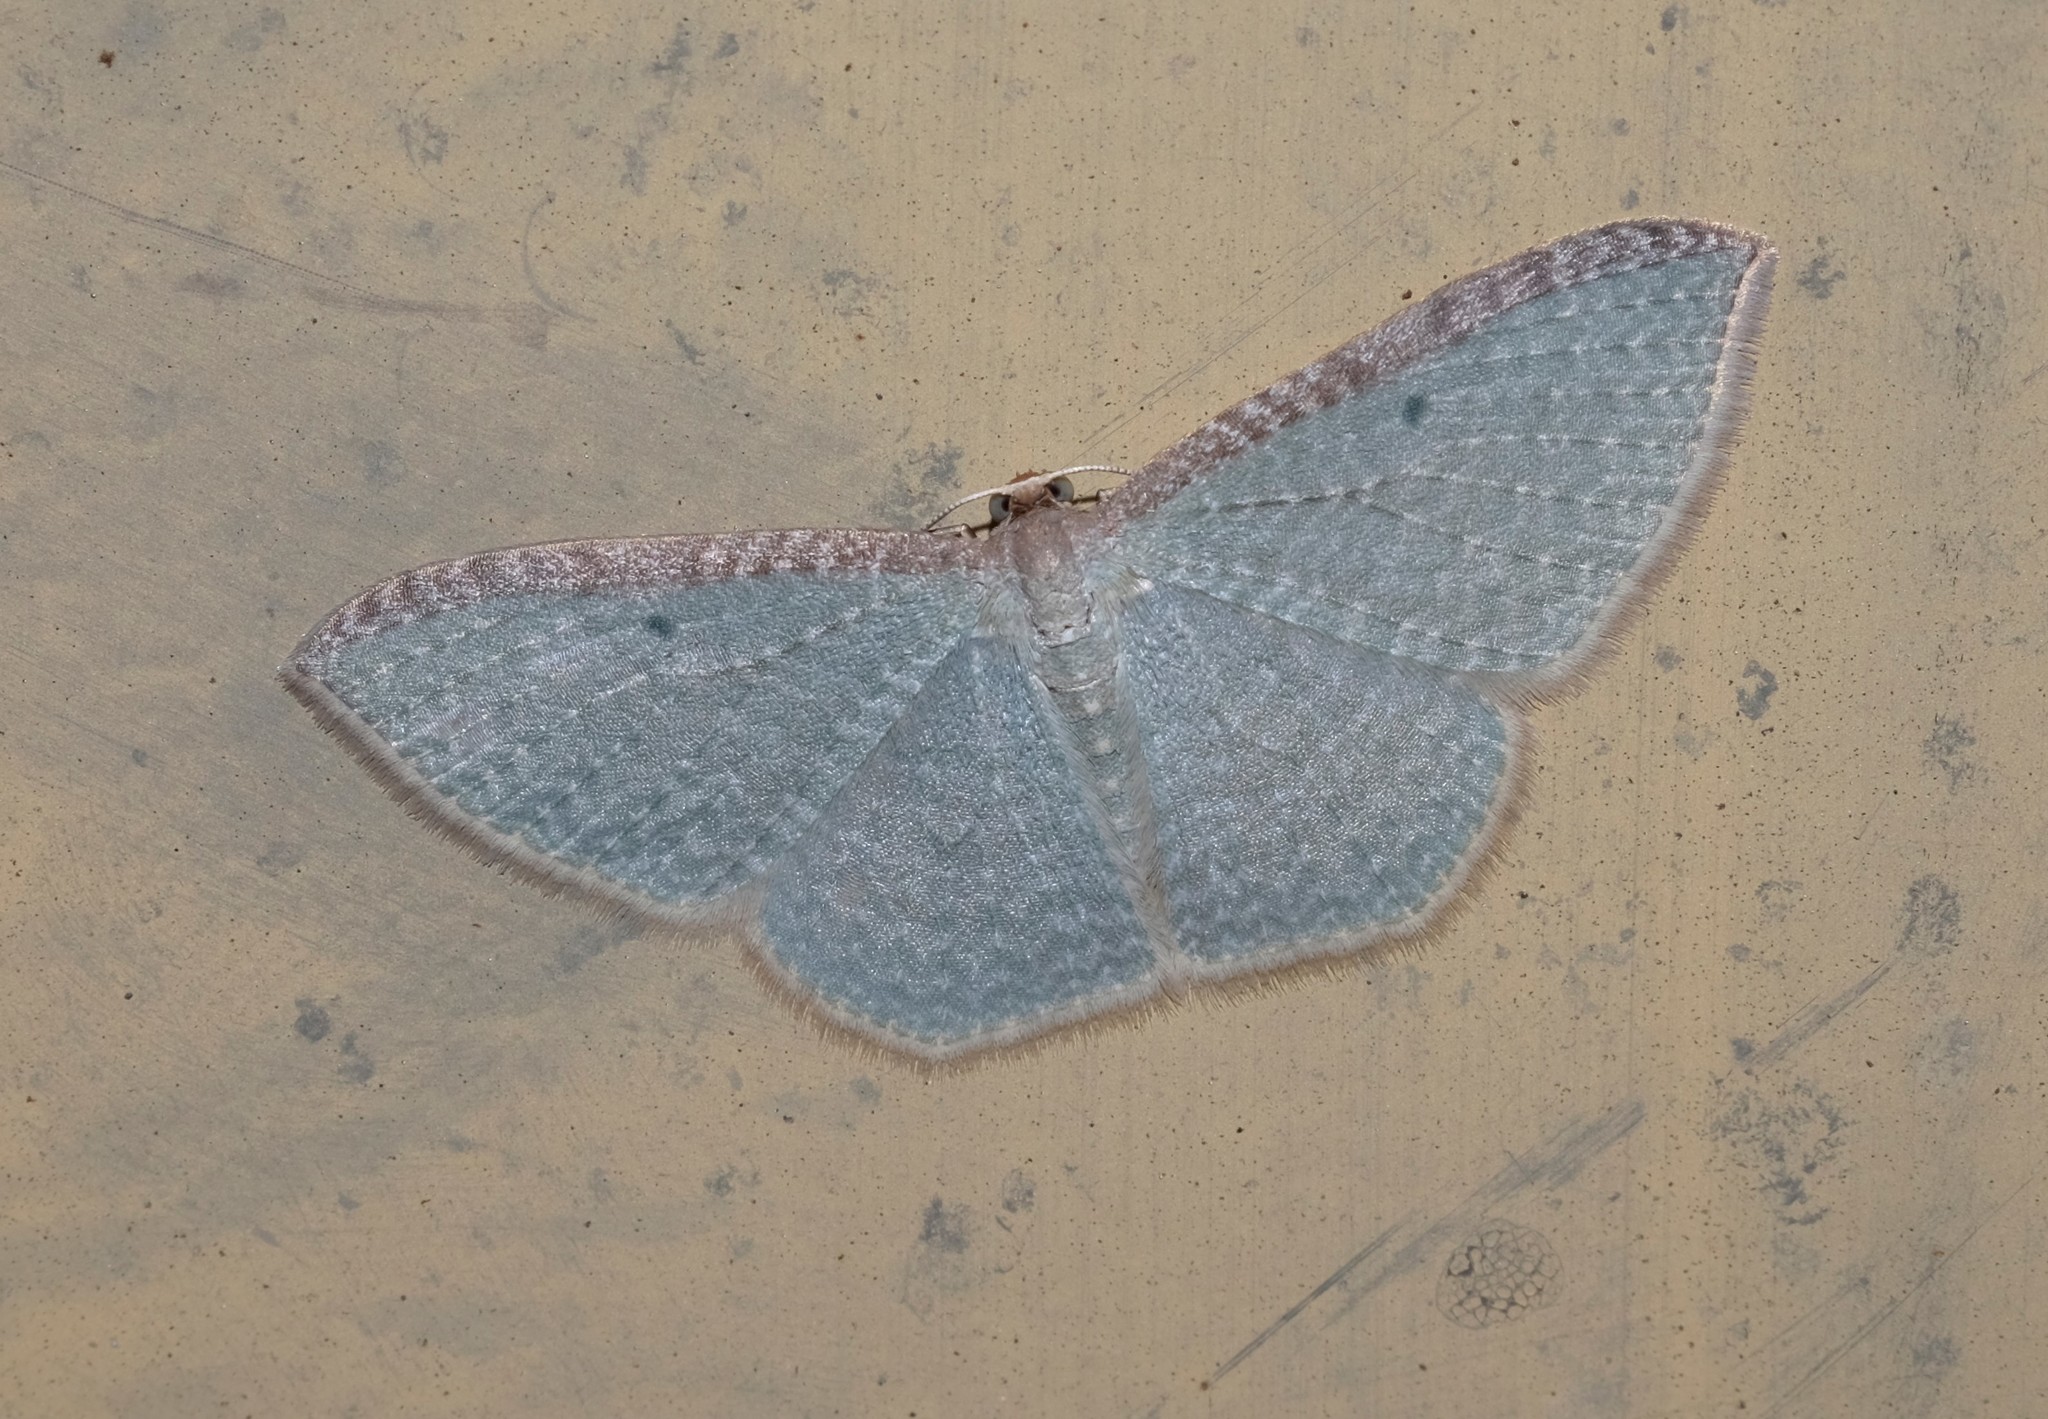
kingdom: Animalia
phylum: Arthropoda
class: Insecta
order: Lepidoptera
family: Geometridae
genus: Poecilasthena
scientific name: Poecilasthena pulchraria
